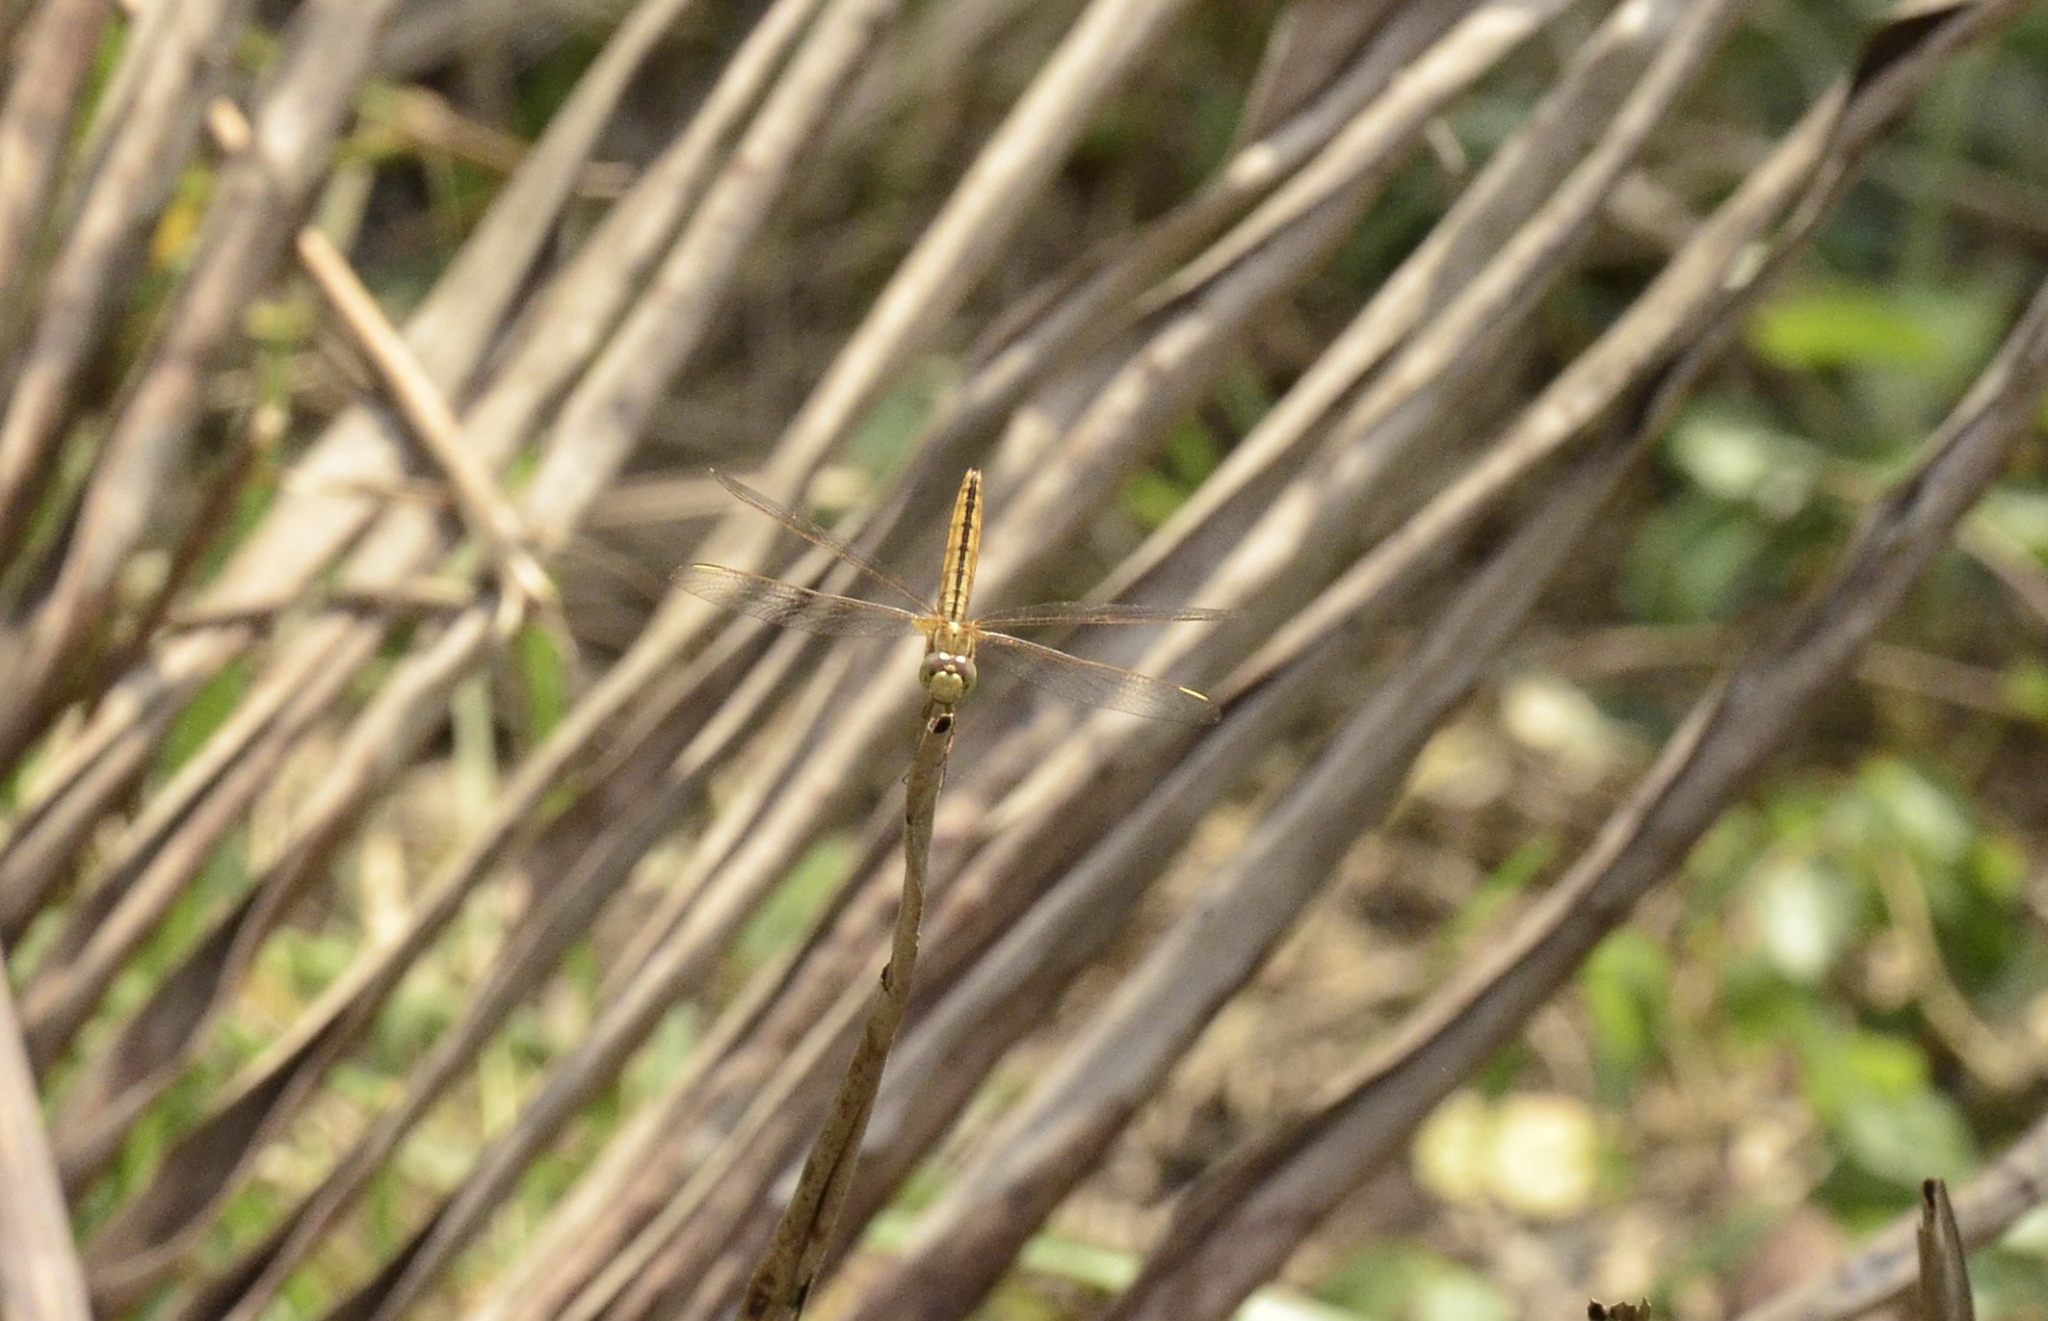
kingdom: Animalia
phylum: Arthropoda
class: Insecta
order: Odonata
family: Libellulidae
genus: Crocothemis
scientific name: Crocothemis servilia
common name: Scarlet skimmer
